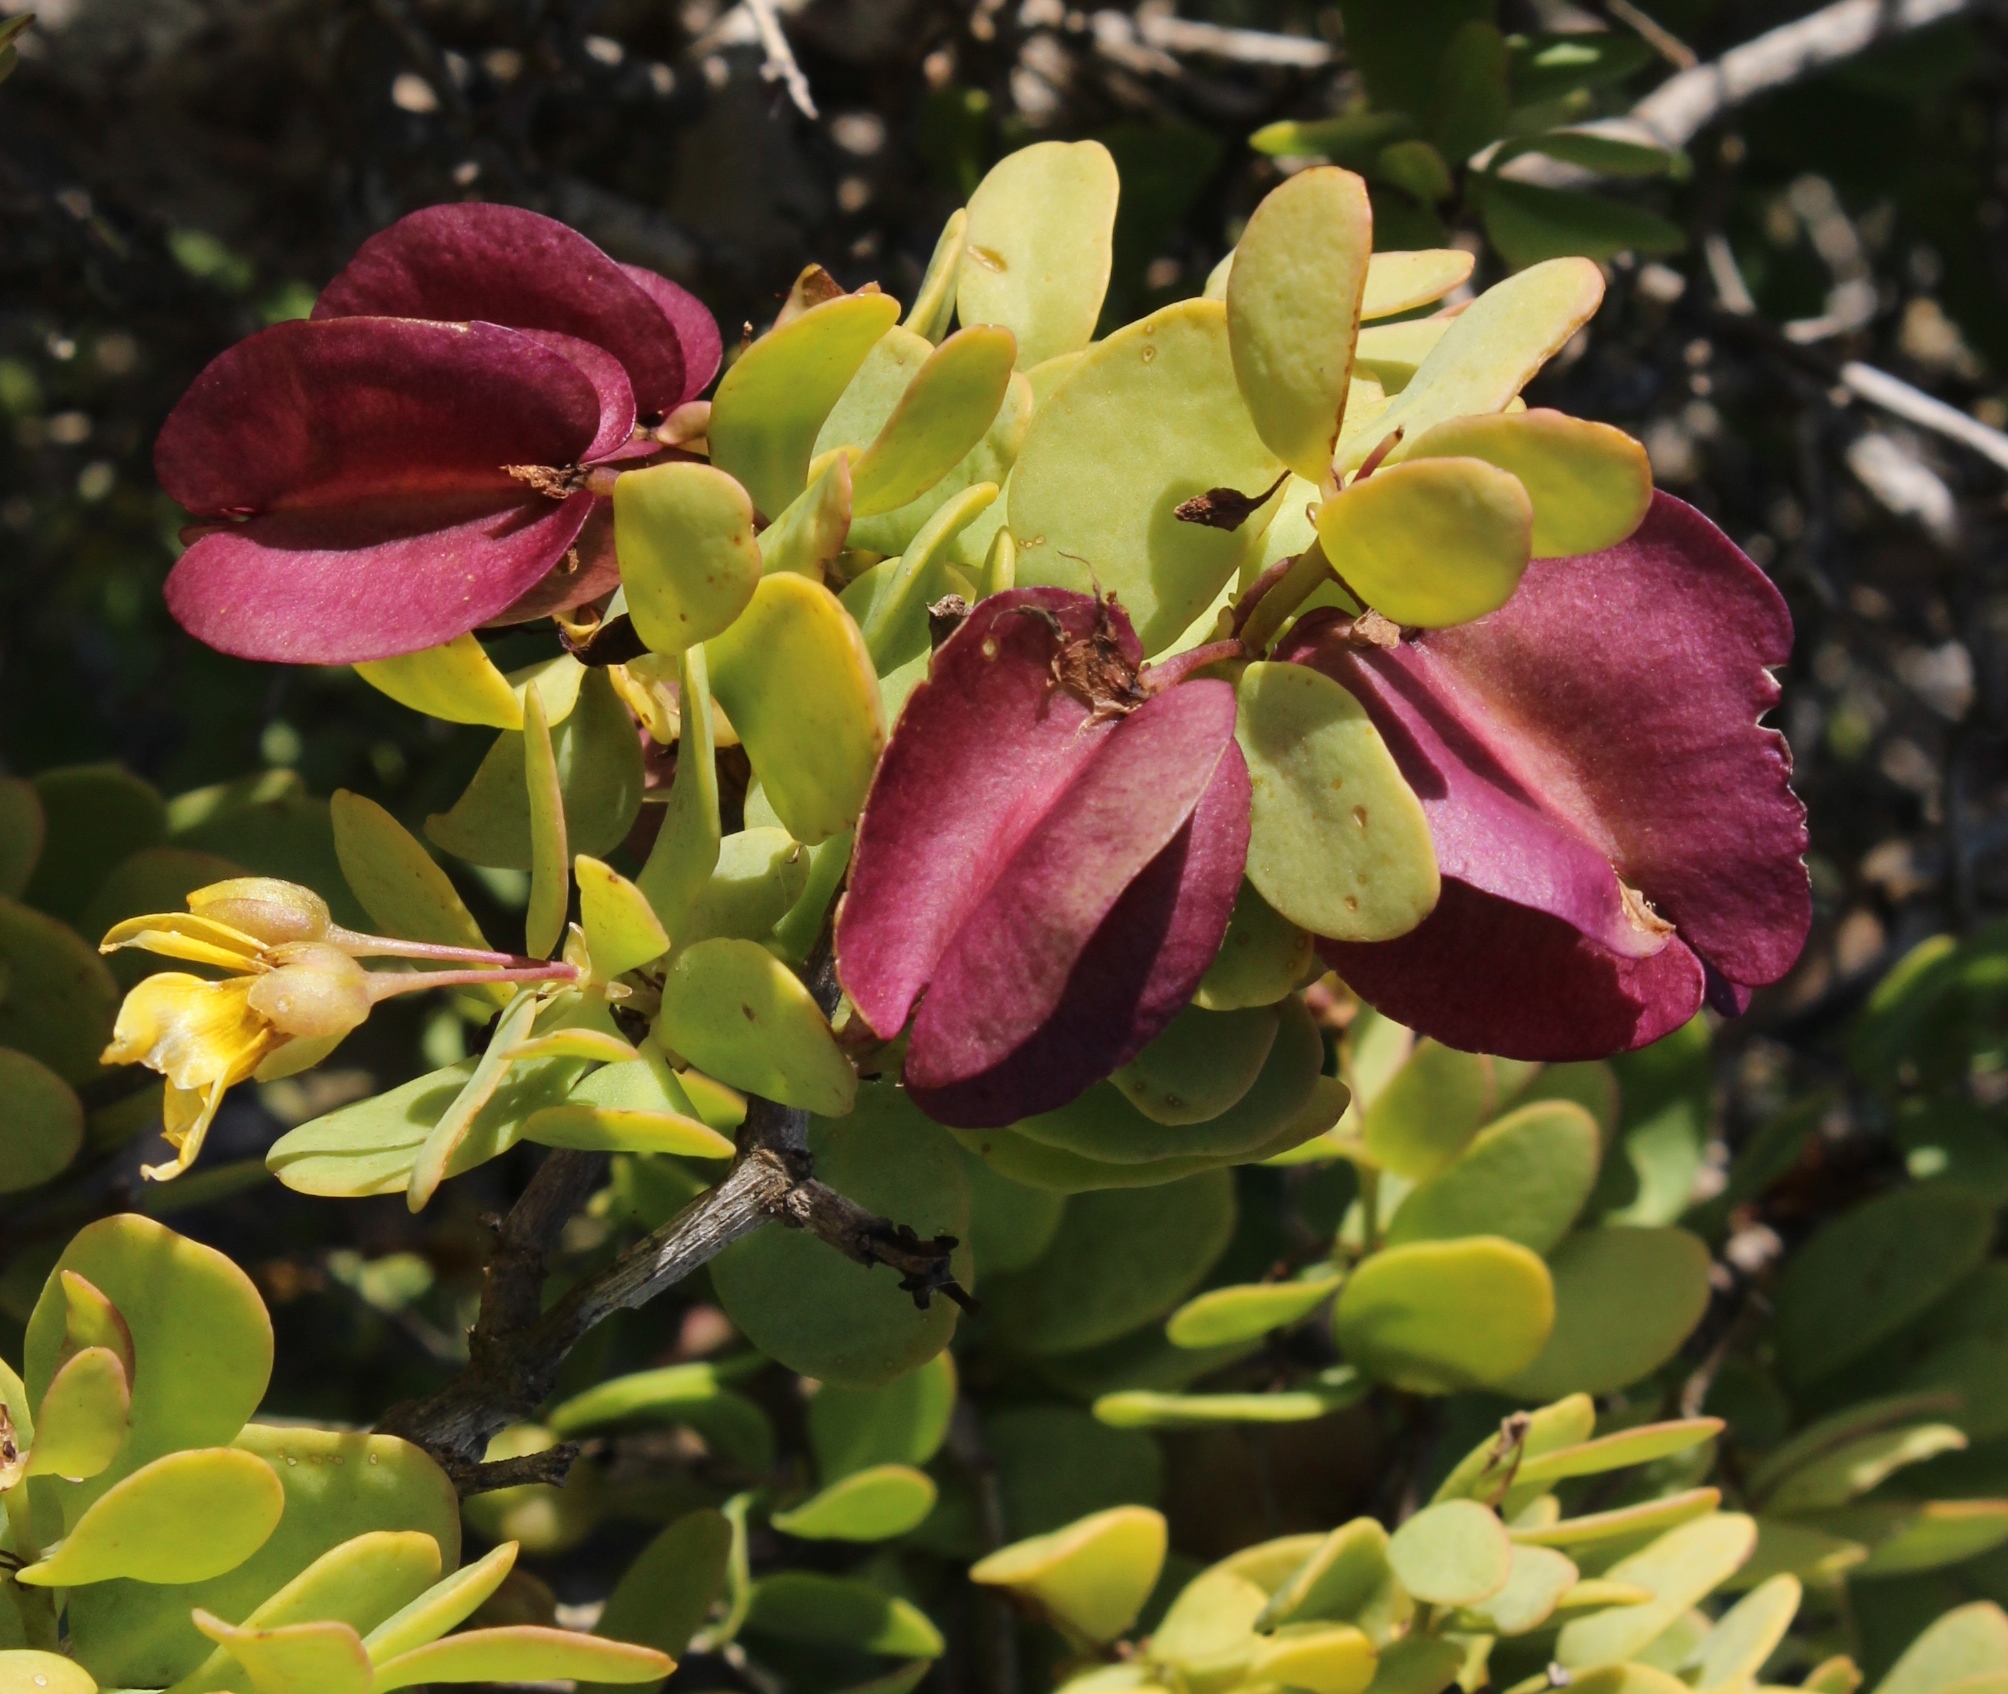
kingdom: Plantae
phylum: Tracheophyta
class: Magnoliopsida
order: Zygophyllales
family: Zygophyllaceae
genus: Roepera
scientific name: Roepera morgsana
